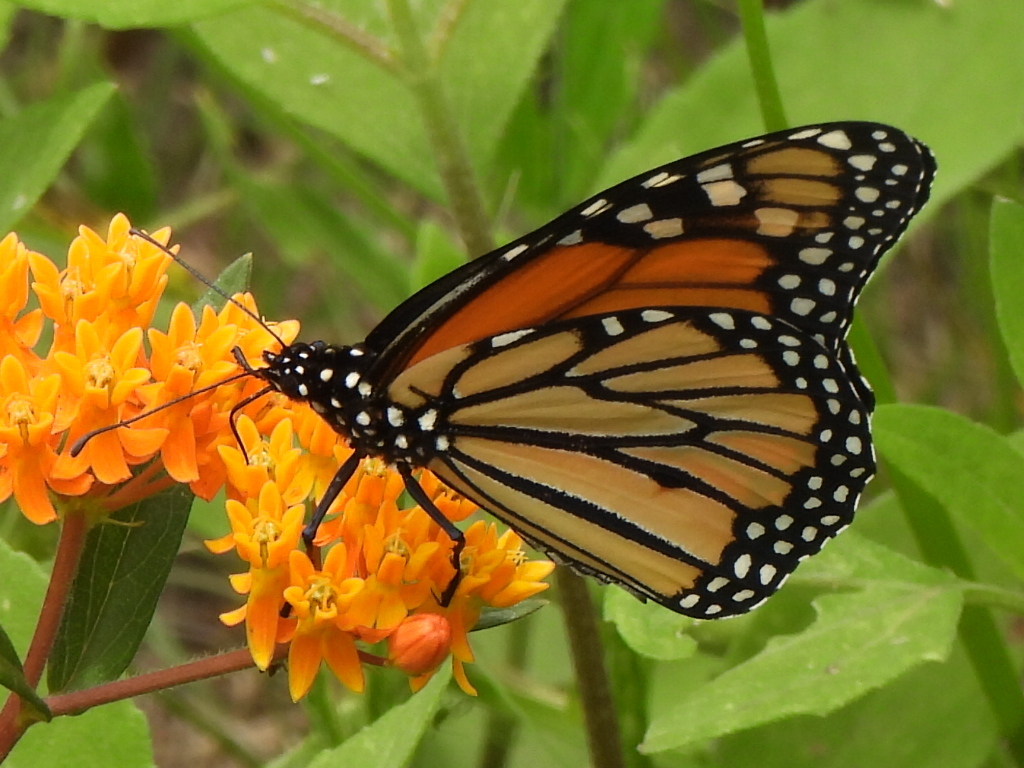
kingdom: Animalia
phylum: Arthropoda
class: Insecta
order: Lepidoptera
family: Nymphalidae
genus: Danaus
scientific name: Danaus plexippus
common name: Monarch
